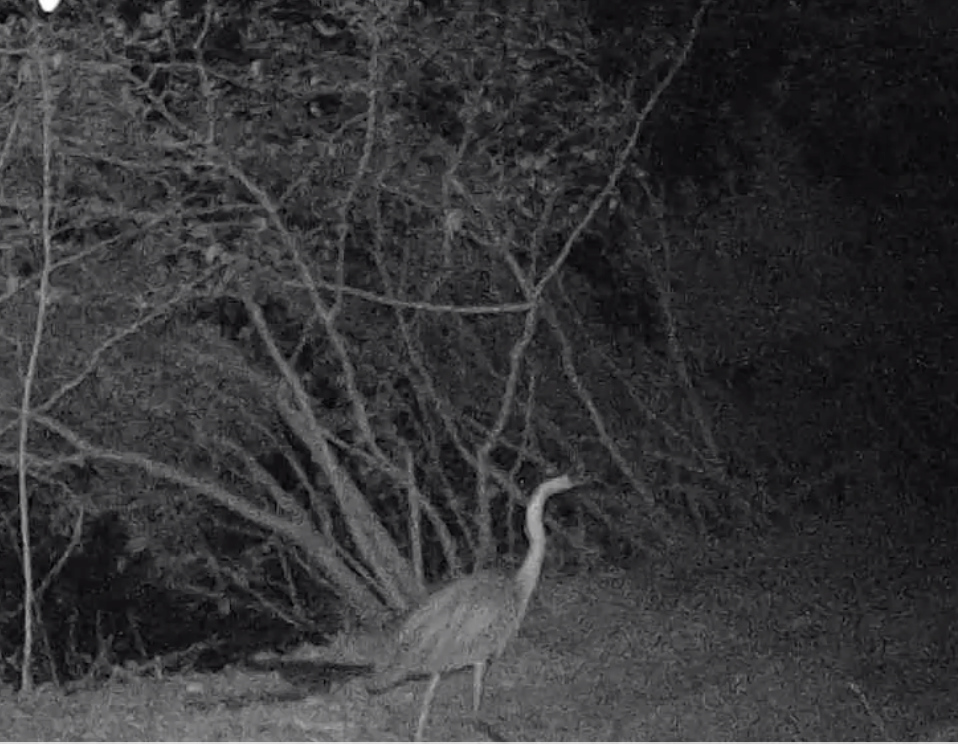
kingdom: Animalia
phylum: Chordata
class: Aves
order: Pelecaniformes
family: Ardeidae
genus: Ardea
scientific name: Ardea herodias
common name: Great blue heron
